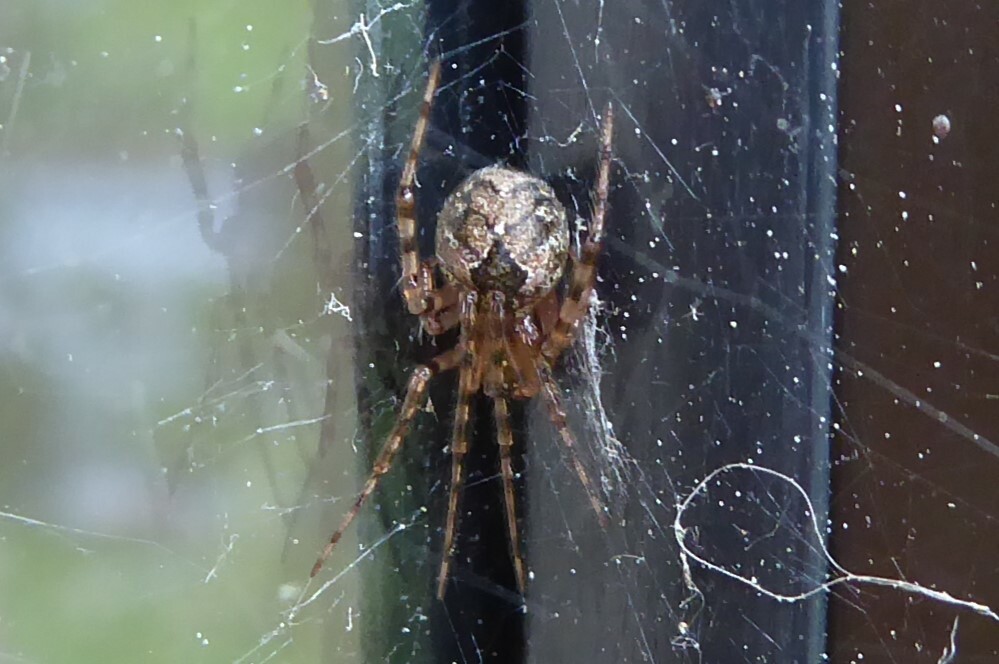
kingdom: Animalia
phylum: Arthropoda
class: Arachnida
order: Araneae
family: Theridiidae
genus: Cryptachaea
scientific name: Cryptachaea veruculata
